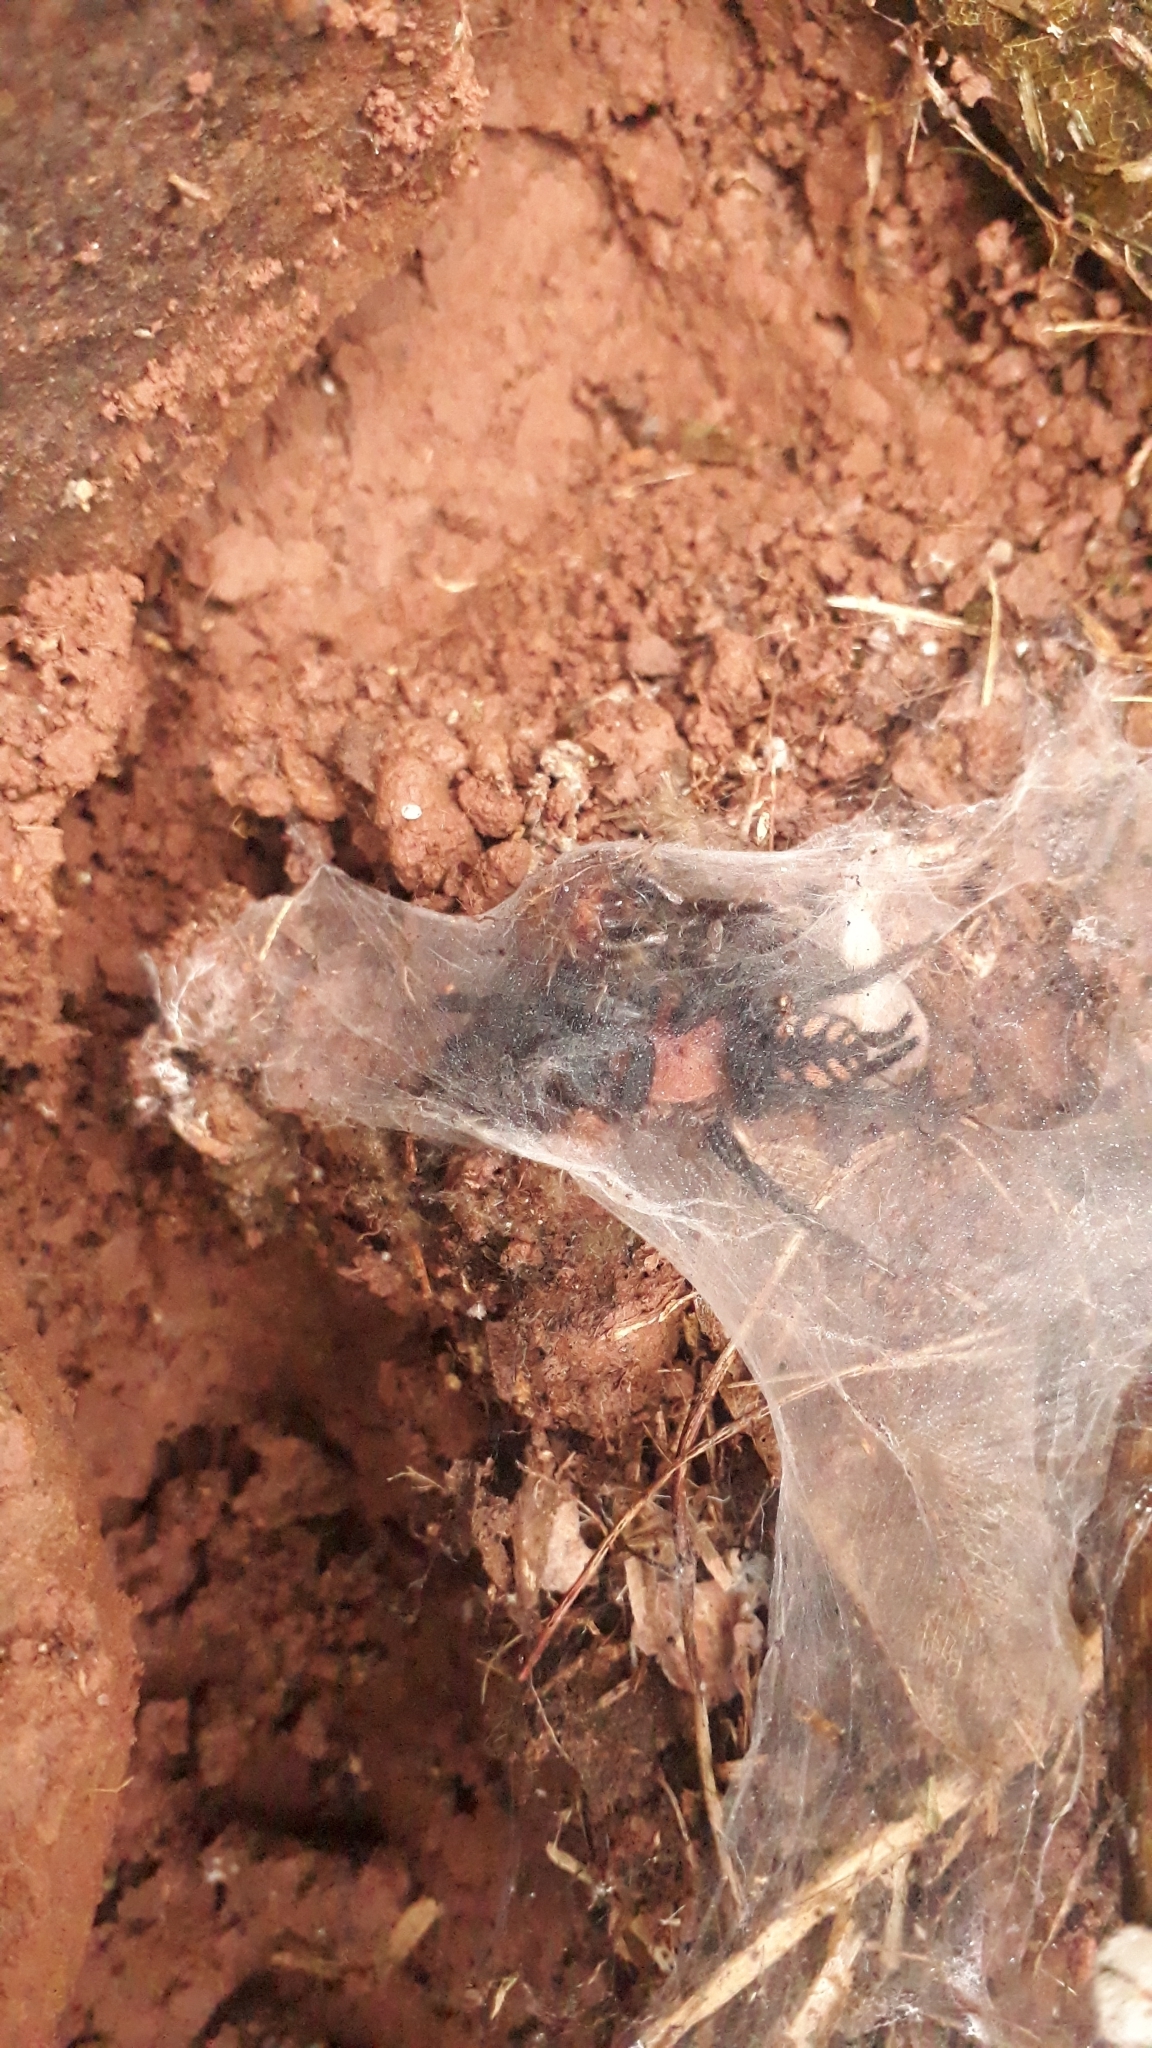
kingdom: Animalia
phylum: Arthropoda
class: Arachnida
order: Araneae
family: Dipluridae
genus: Diplura
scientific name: Diplura sanguinea
